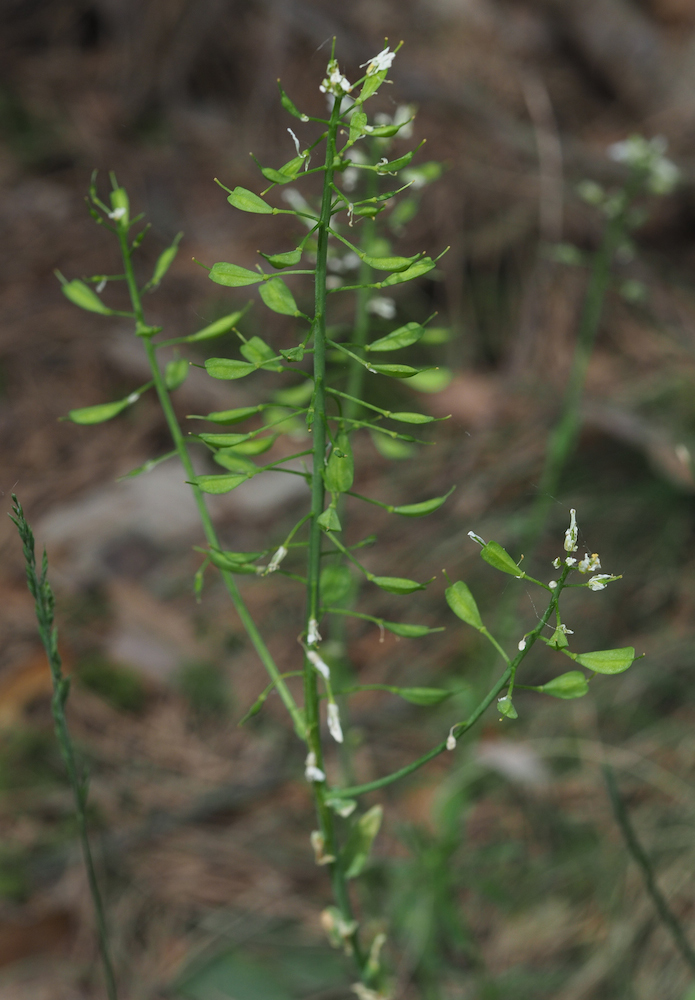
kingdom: Plantae
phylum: Tracheophyta
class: Magnoliopsida
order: Brassicales
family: Brassicaceae
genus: Noccaea
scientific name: Noccaea goesingensis
